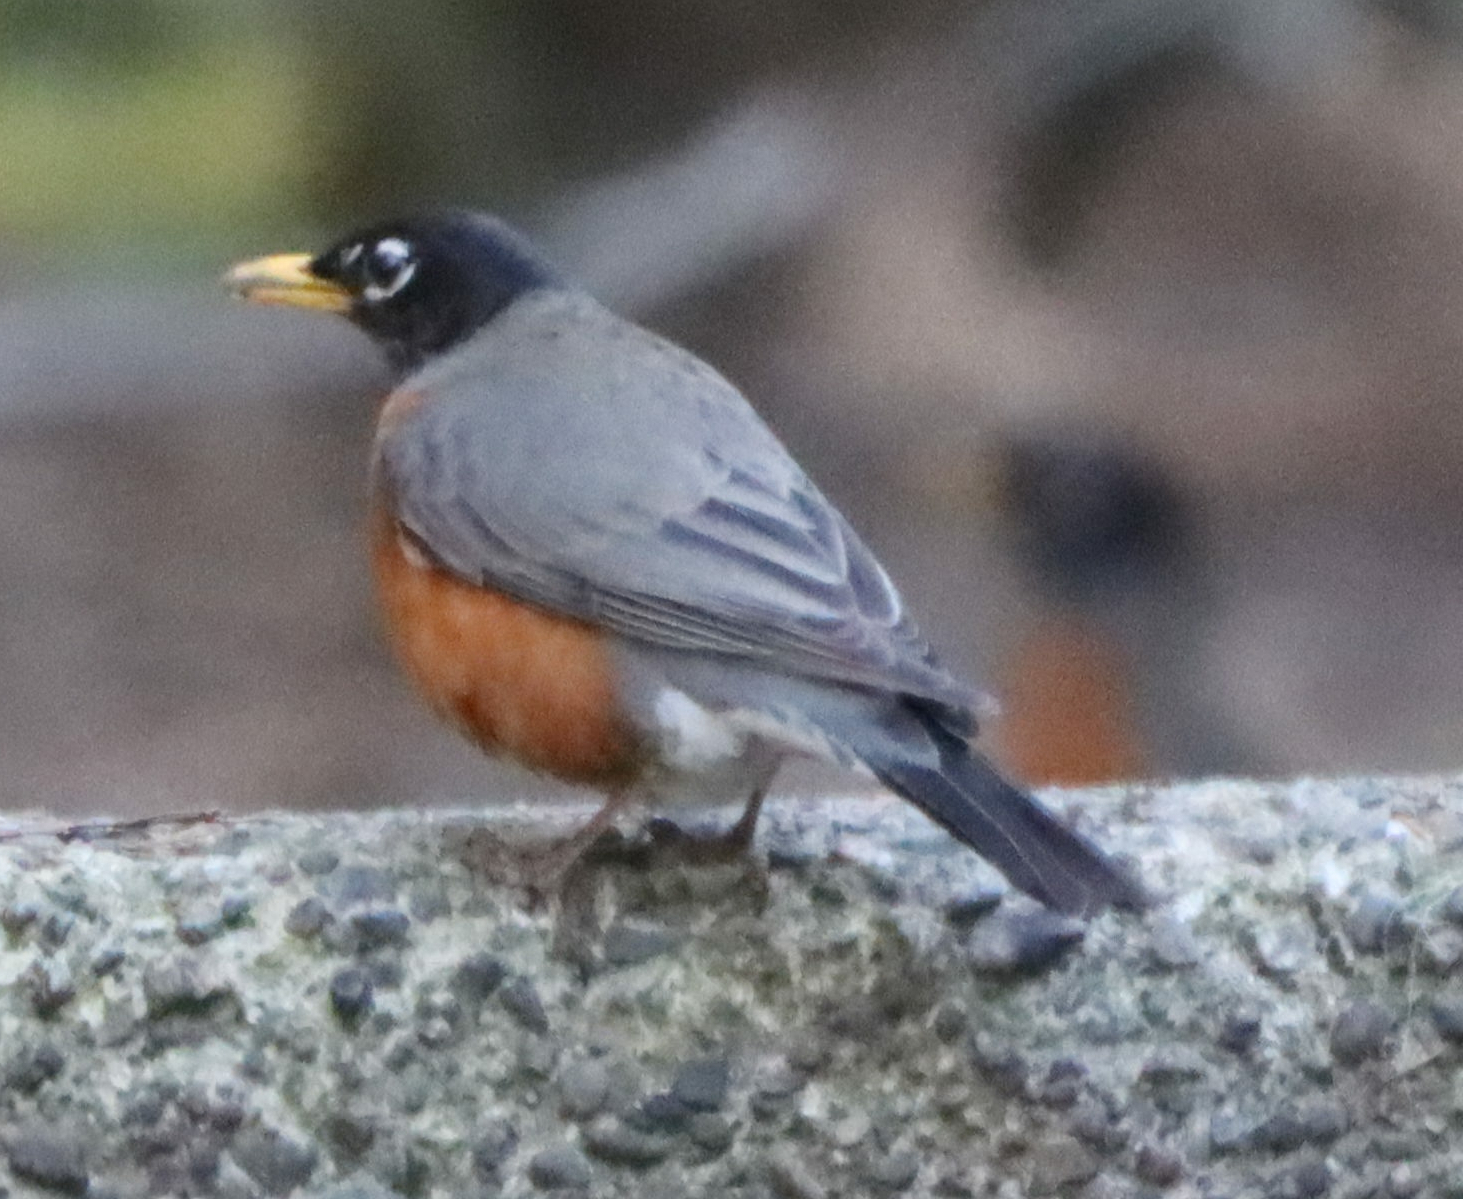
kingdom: Animalia
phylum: Chordata
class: Aves
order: Passeriformes
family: Turdidae
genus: Turdus
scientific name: Turdus migratorius
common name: American robin
